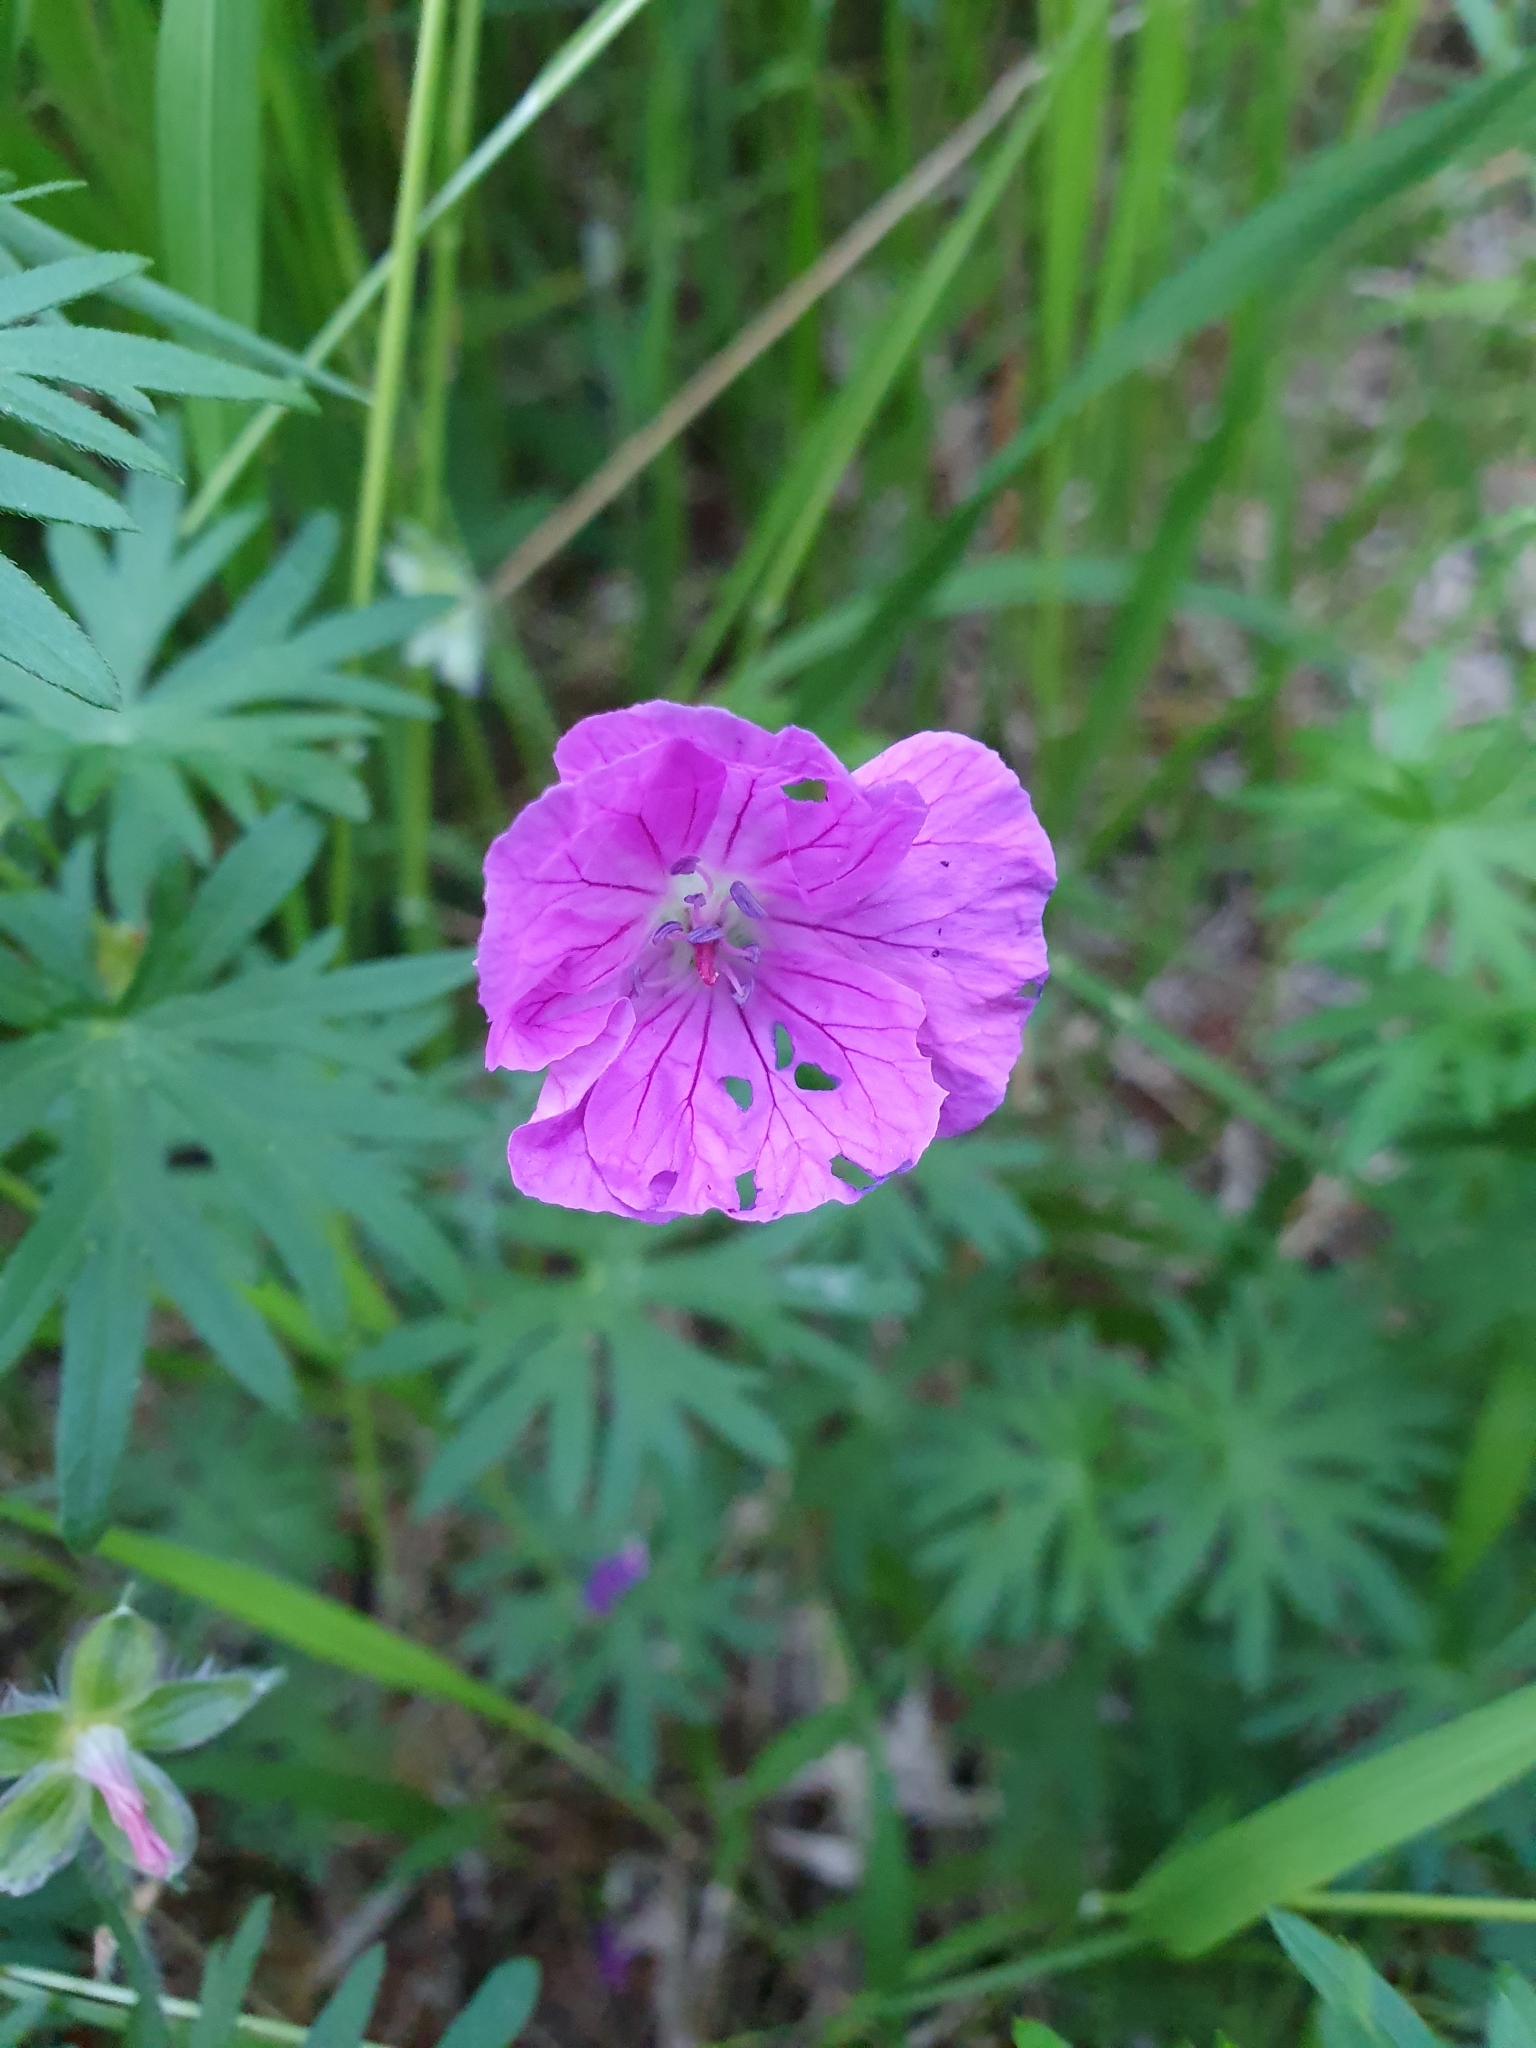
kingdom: Plantae
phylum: Tracheophyta
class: Magnoliopsida
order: Geraniales
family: Geraniaceae
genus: Geranium
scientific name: Geranium sanguineum
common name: Bloody crane's-bill
